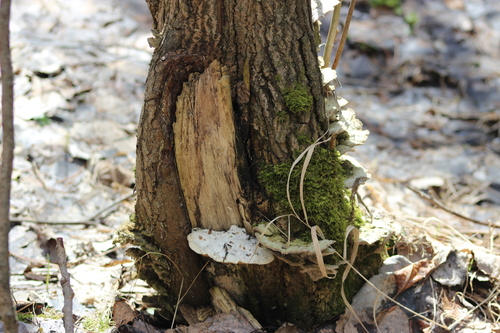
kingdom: Fungi
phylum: Basidiomycota
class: Agaricomycetes
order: Polyporales
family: Cerrenaceae
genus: Cerrena
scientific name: Cerrena unicolor
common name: Mossy maze polypore
